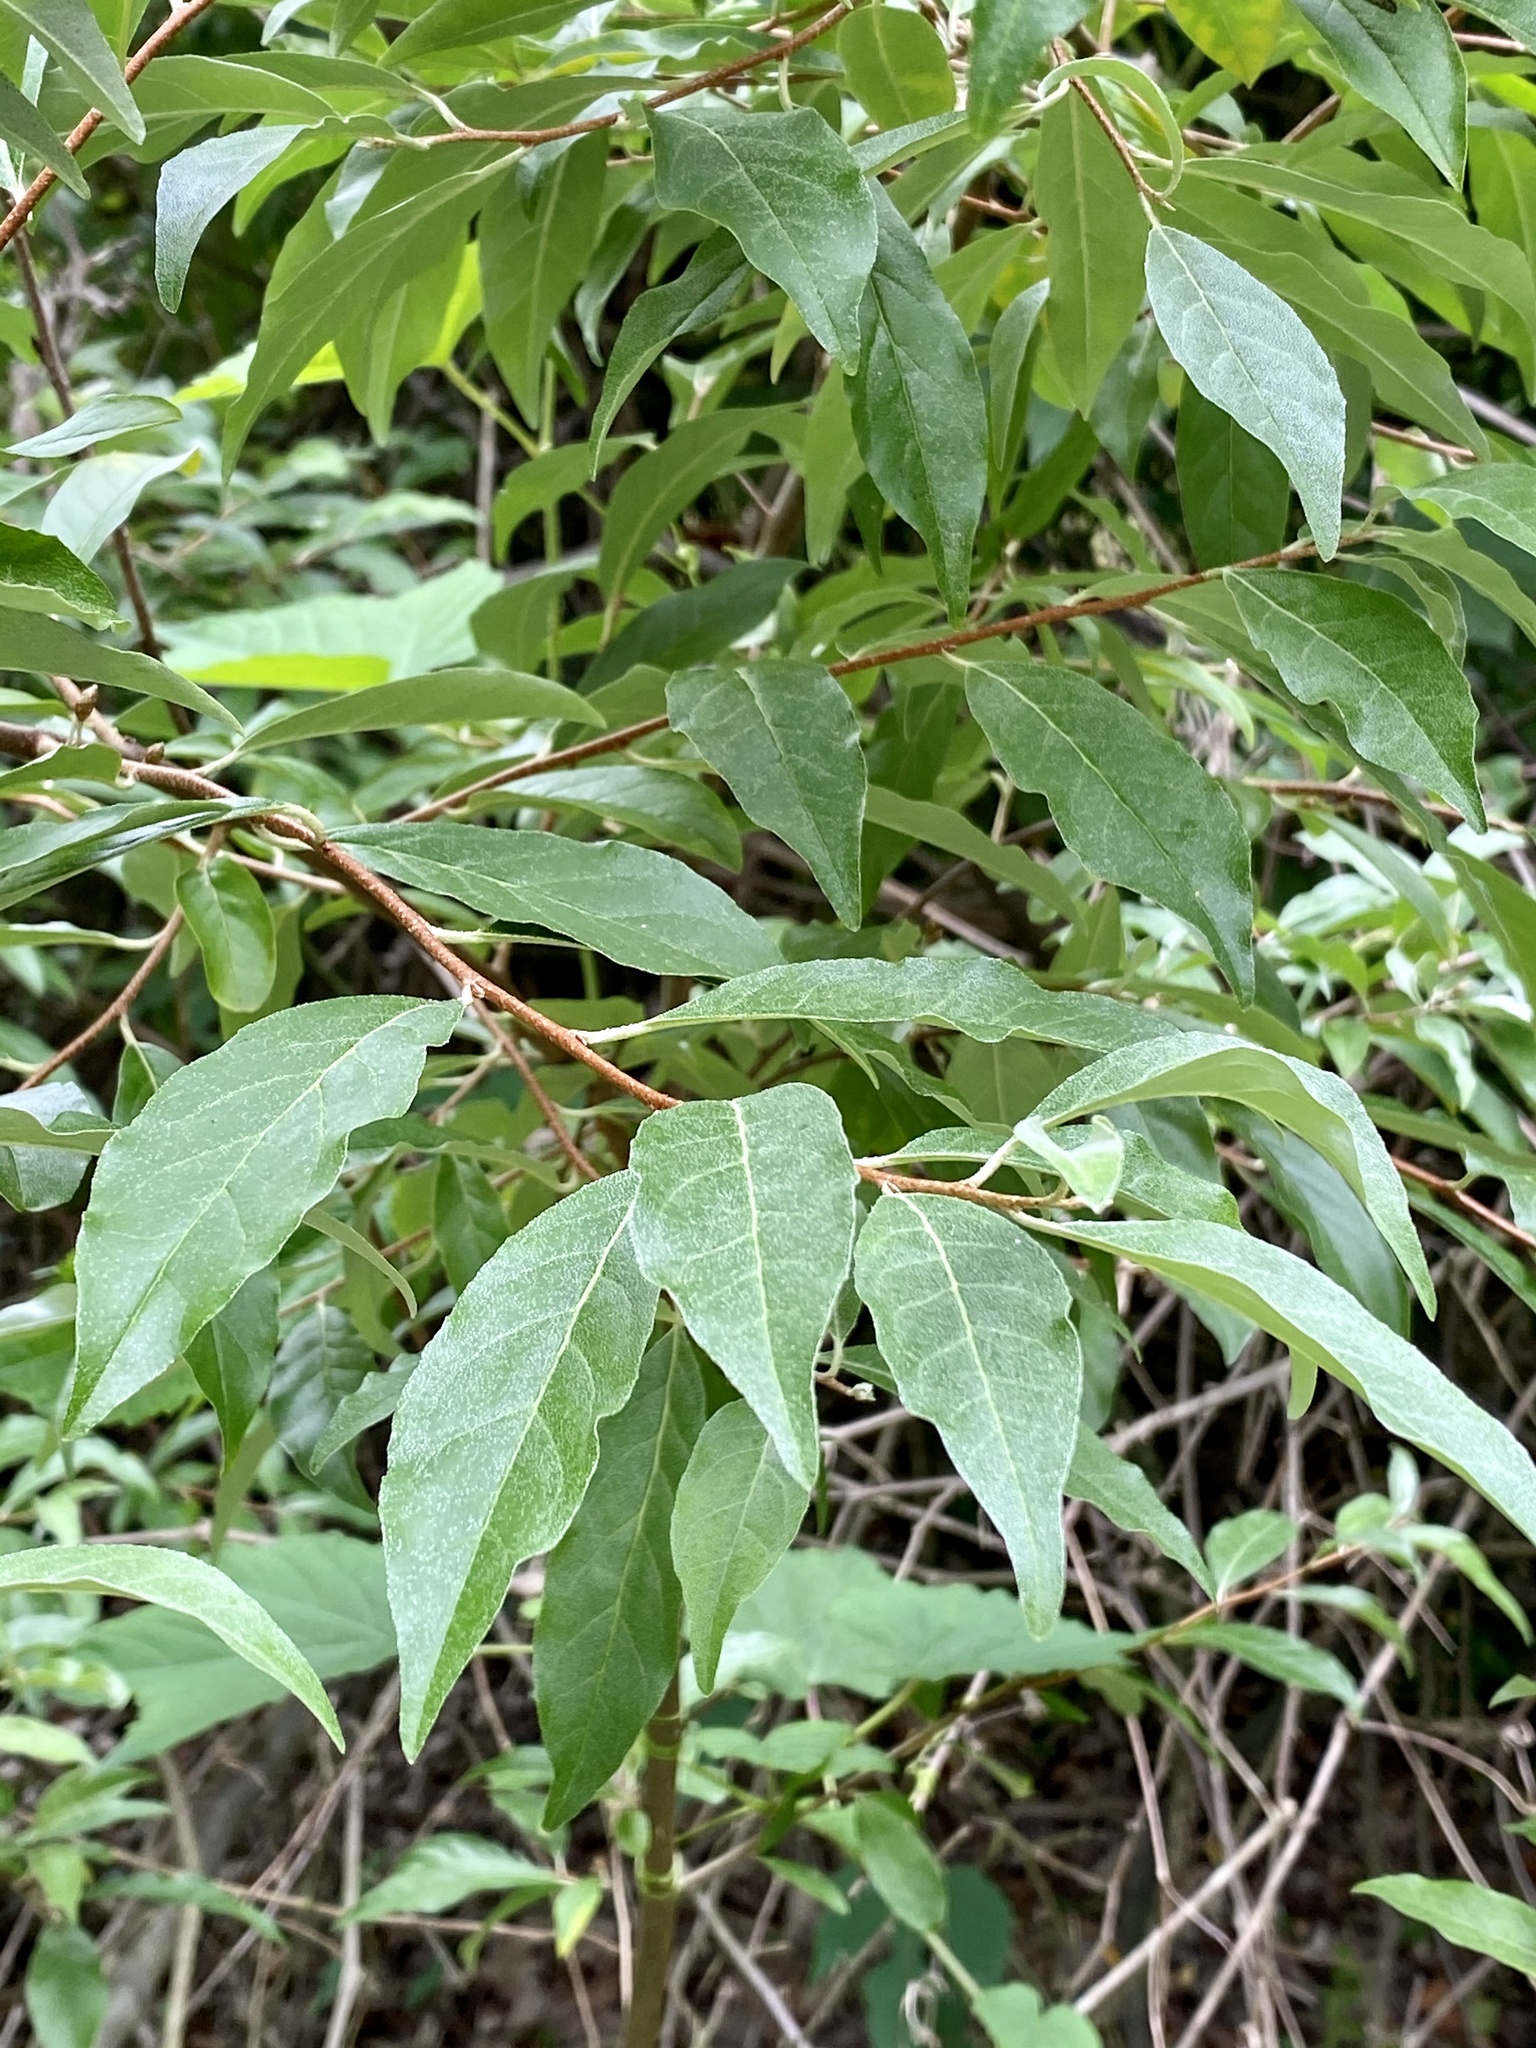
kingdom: Plantae
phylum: Tracheophyta
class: Magnoliopsida
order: Rosales
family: Elaeagnaceae
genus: Elaeagnus
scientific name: Elaeagnus umbellata
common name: Autumn olive
